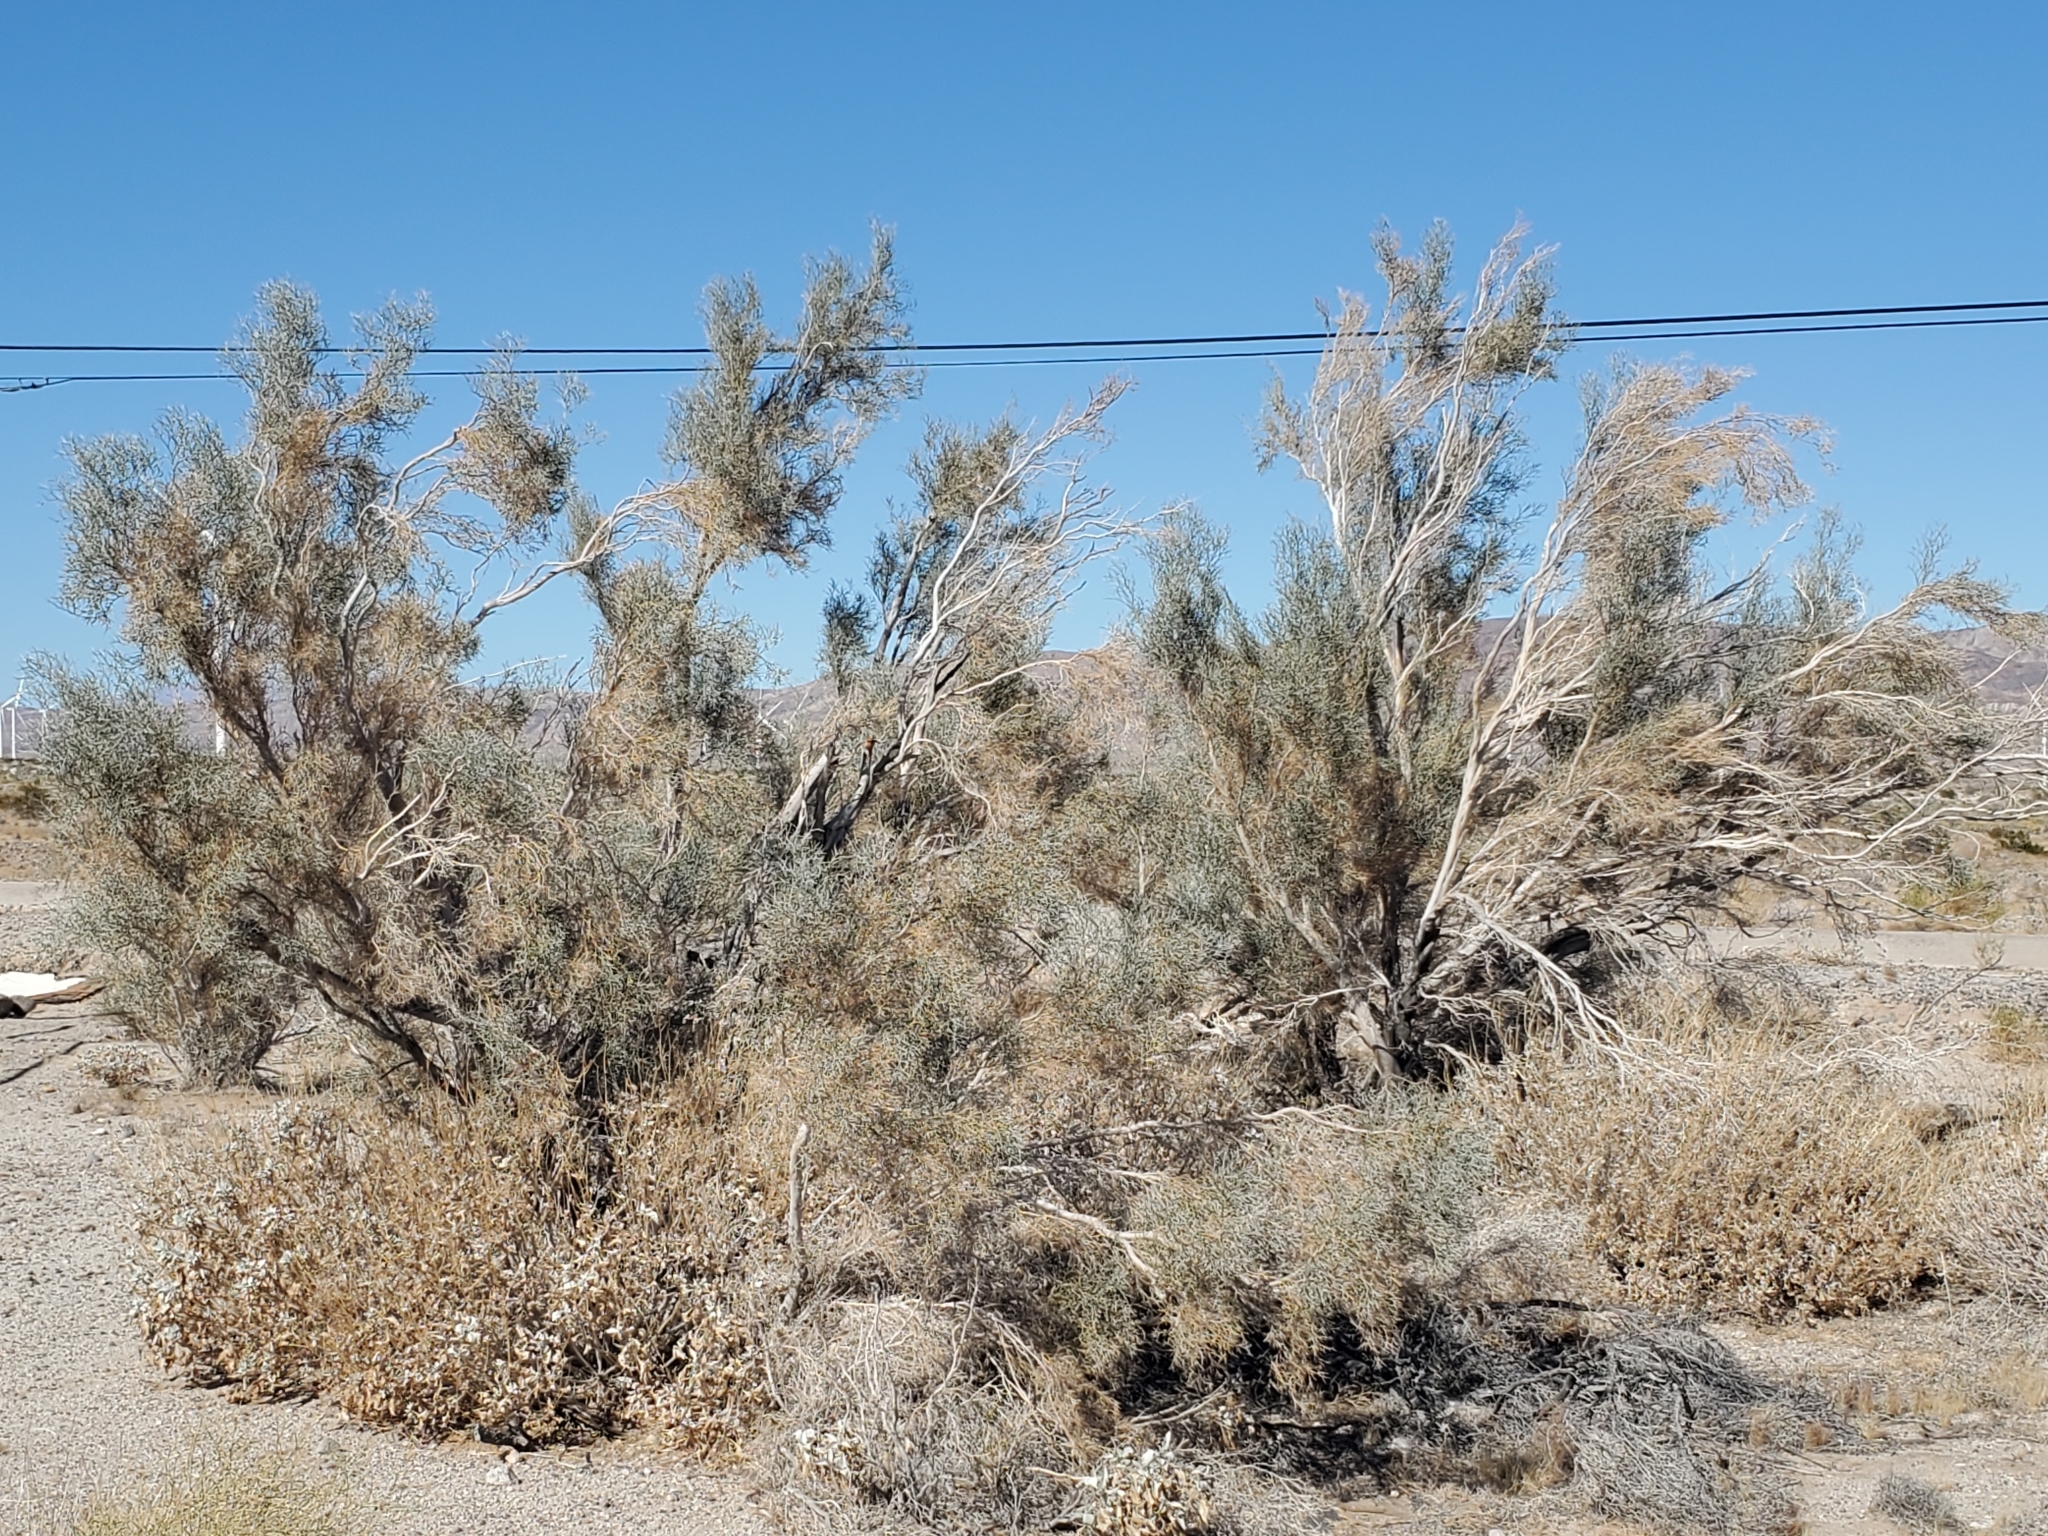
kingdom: Plantae
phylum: Tracheophyta
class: Magnoliopsida
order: Fabales
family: Fabaceae
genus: Psorothamnus
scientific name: Psorothamnus spinosus
